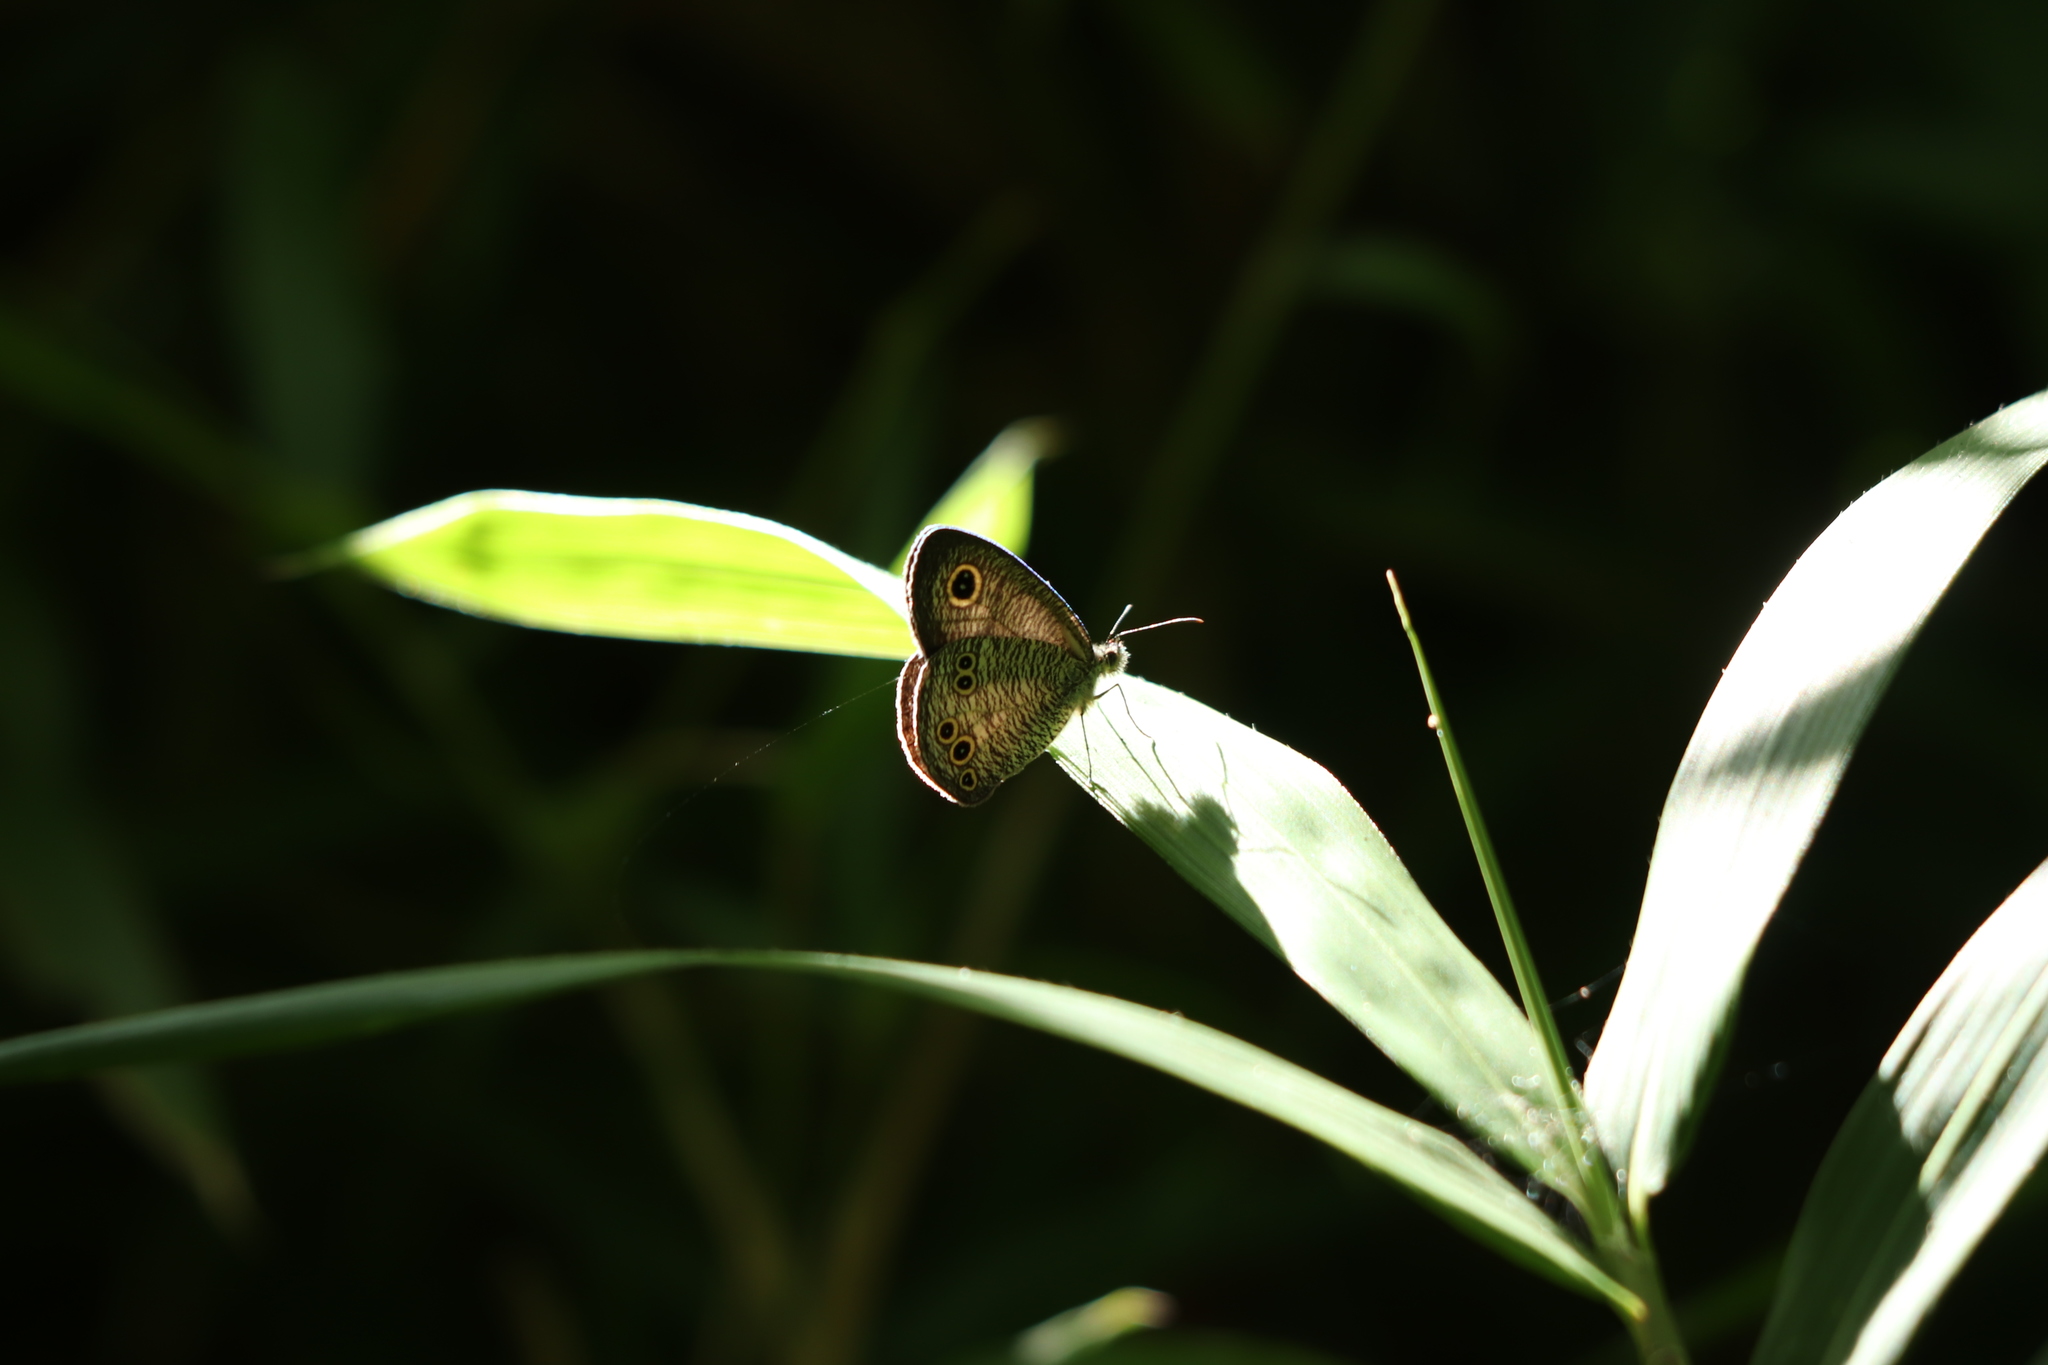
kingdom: Animalia
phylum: Arthropoda
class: Insecta
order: Lepidoptera
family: Nymphalidae
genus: Ypthima
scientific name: Ypthima argus
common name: Common fivering
